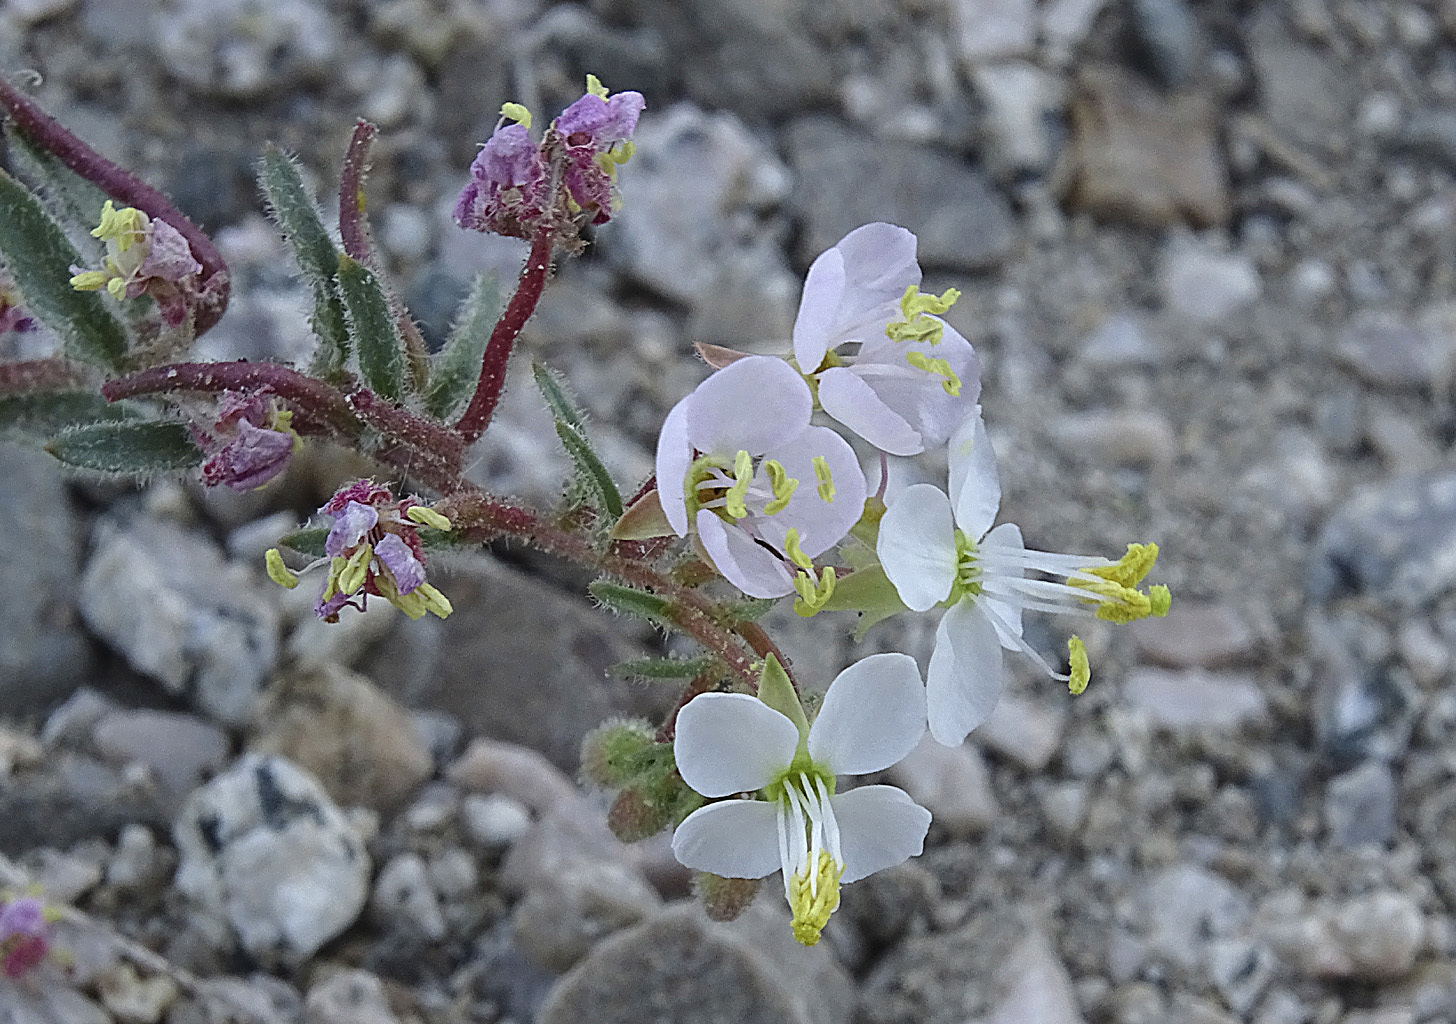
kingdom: Plantae
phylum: Tracheophyta
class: Magnoliopsida
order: Myrtales
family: Onagraceae
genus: Eremothera
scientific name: Eremothera boothii
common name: Booth's evening primrose
